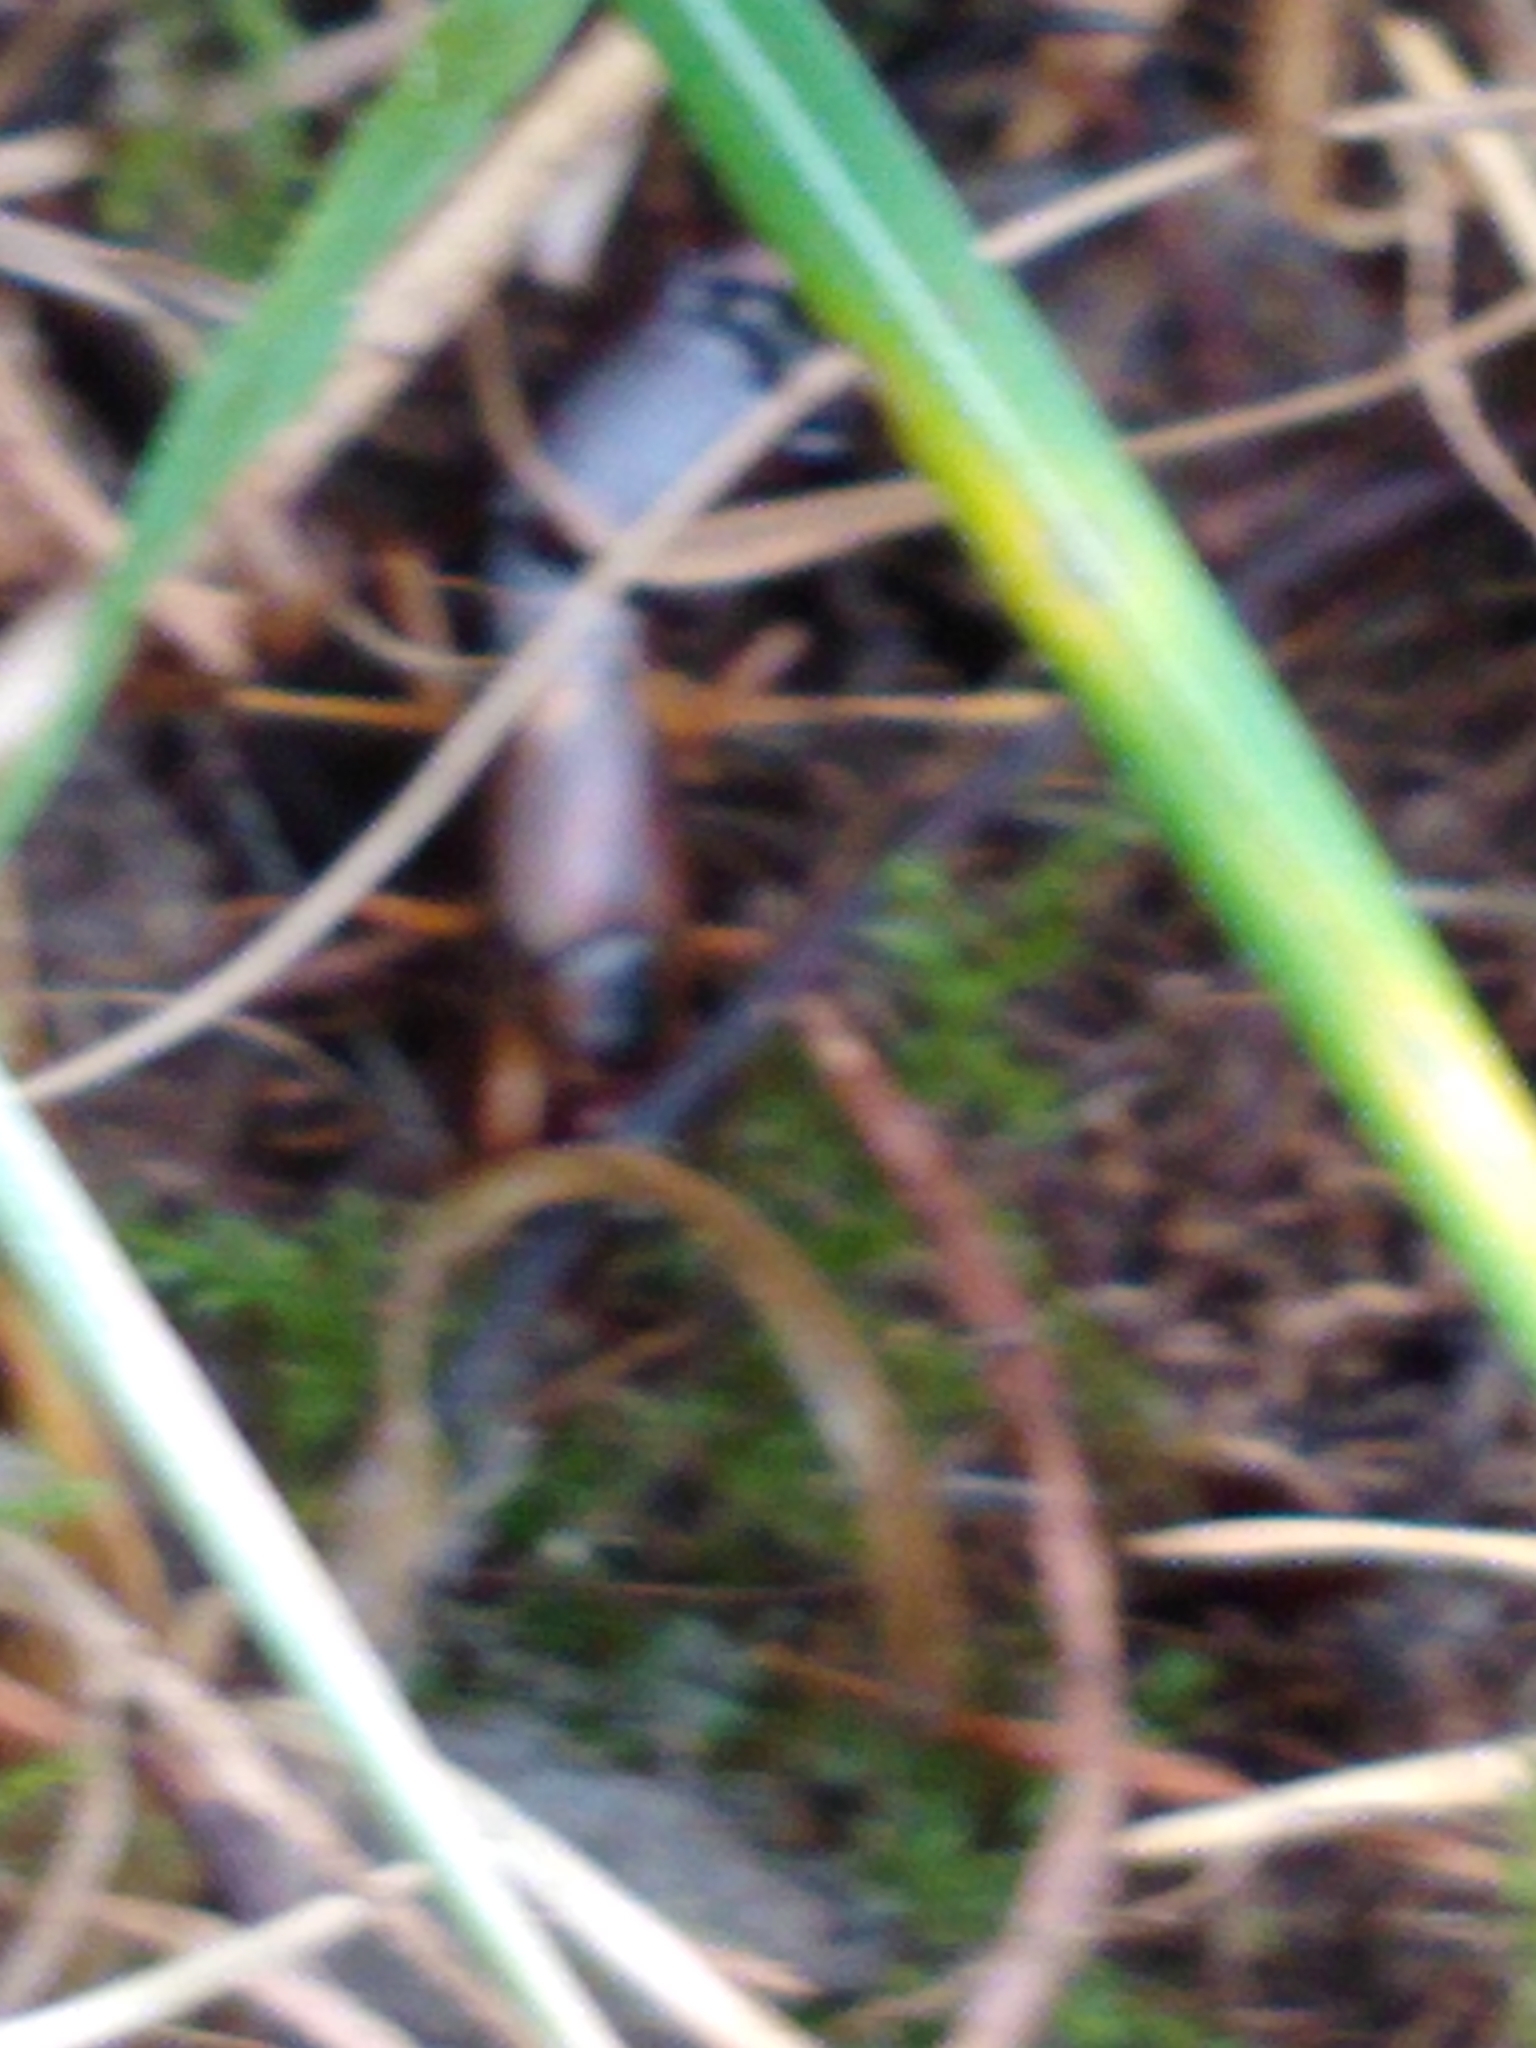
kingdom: Animalia
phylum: Arthropoda
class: Insecta
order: Dermaptera
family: Forficulidae
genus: Forficula
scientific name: Forficula
